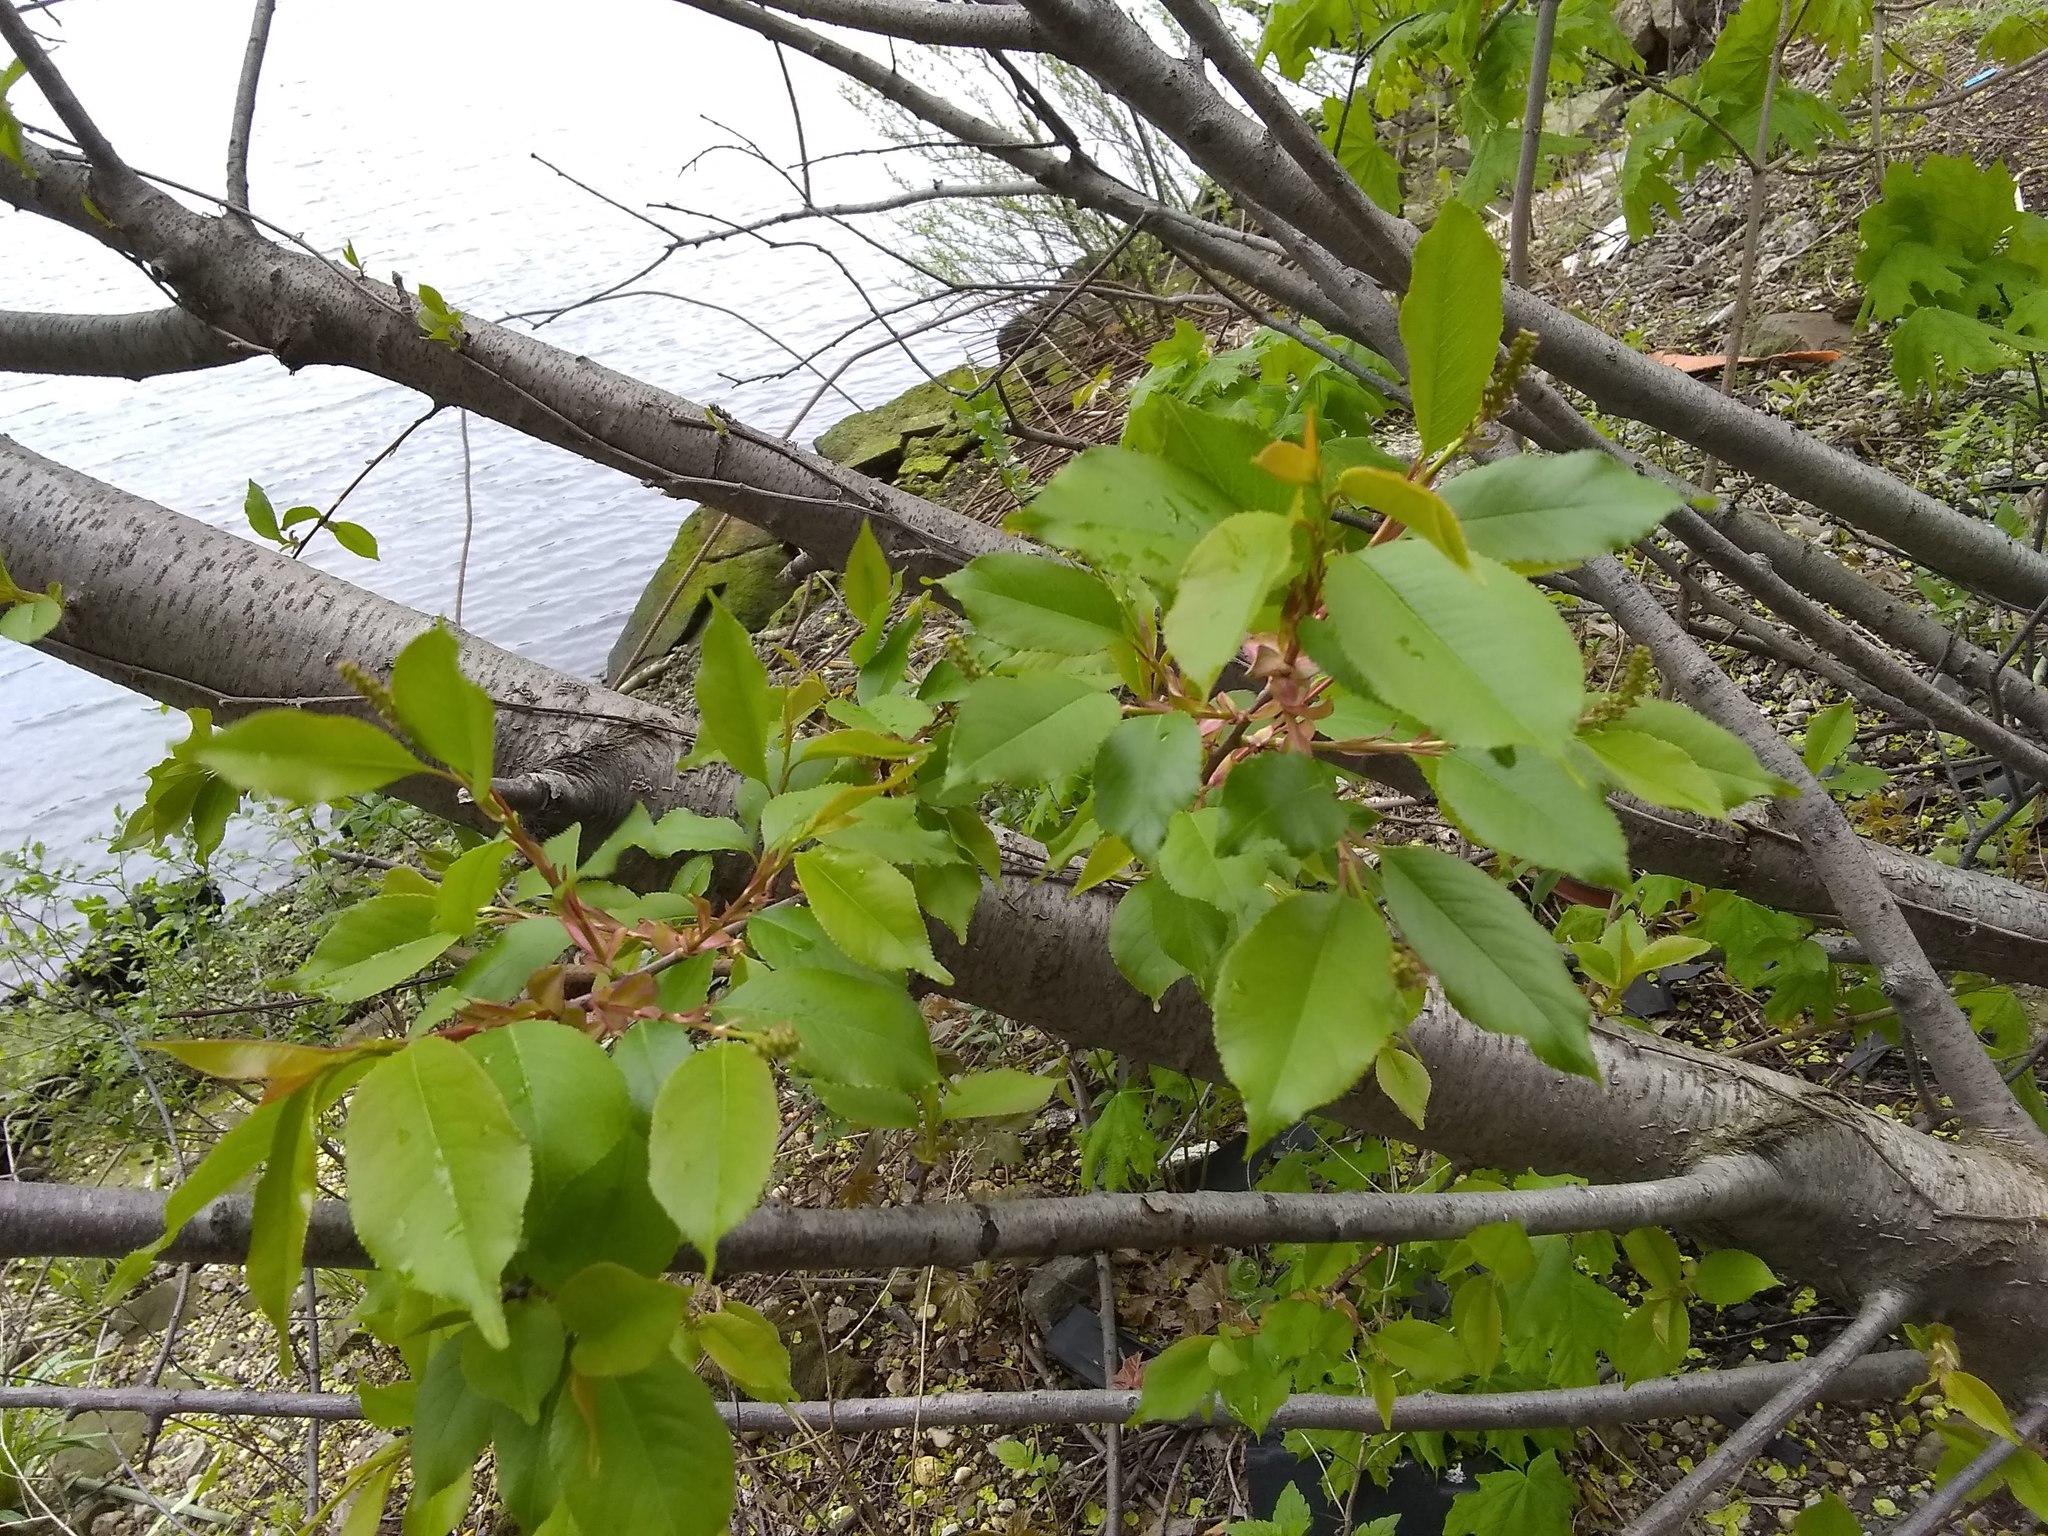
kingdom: Plantae
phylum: Tracheophyta
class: Magnoliopsida
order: Caryophyllales
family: Polygonaceae
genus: Reynoutria
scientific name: Reynoutria japonica
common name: Japanese knotweed
